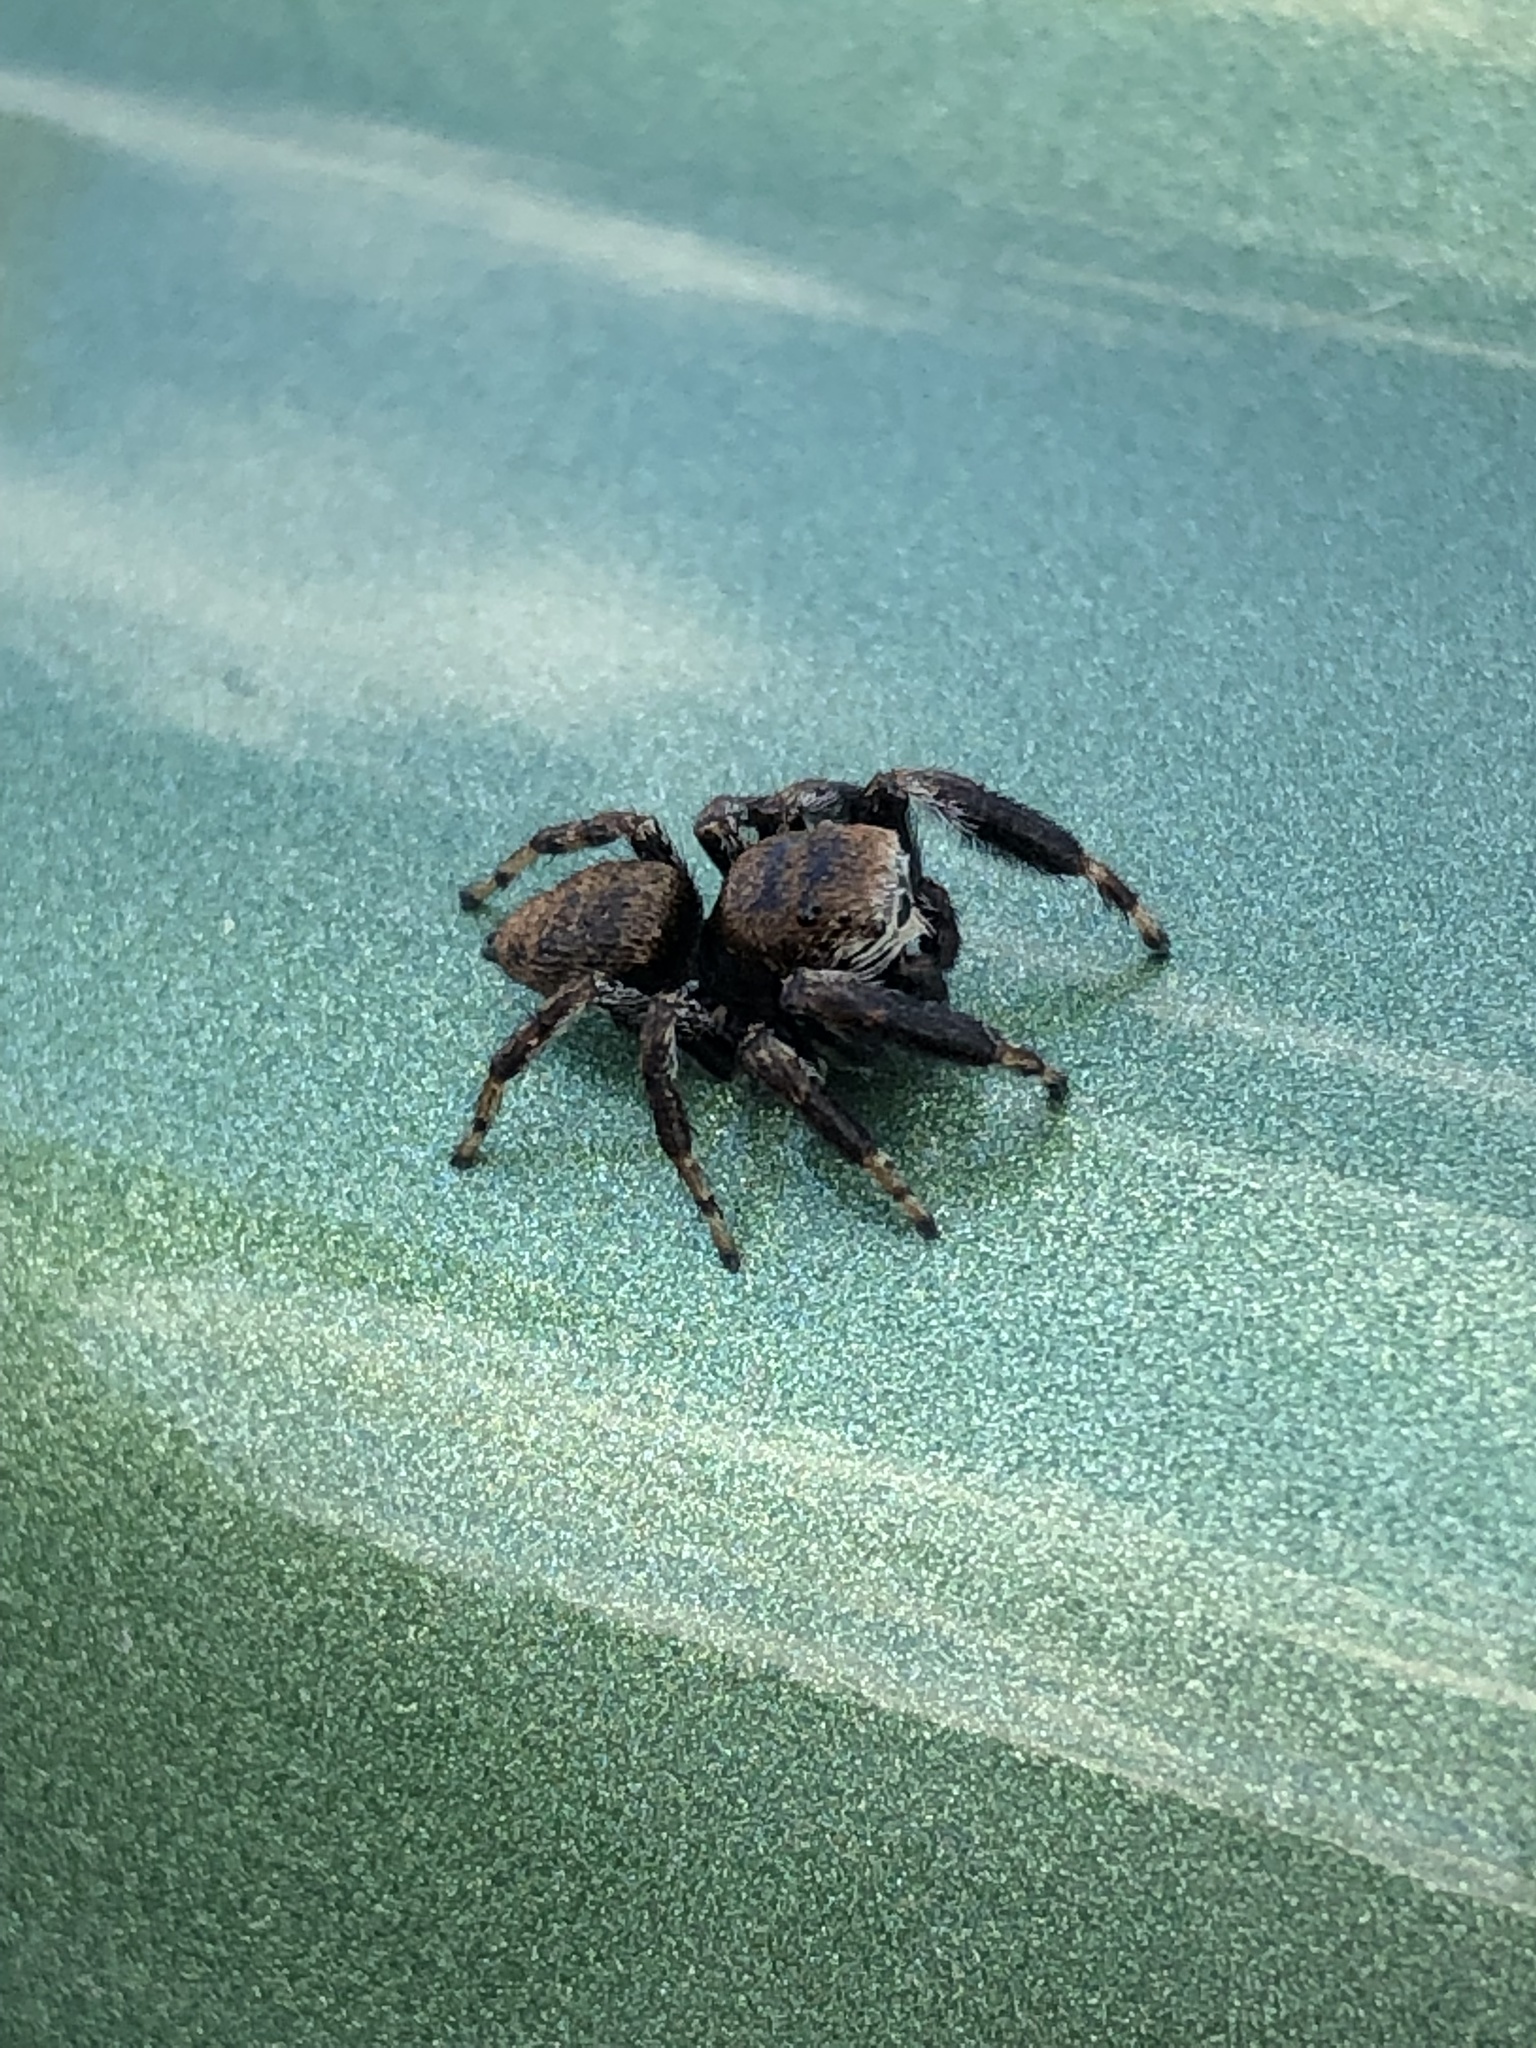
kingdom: Animalia
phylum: Arthropoda
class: Arachnida
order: Araneae
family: Salticidae
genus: Evarcha
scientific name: Evarcha arcuata
